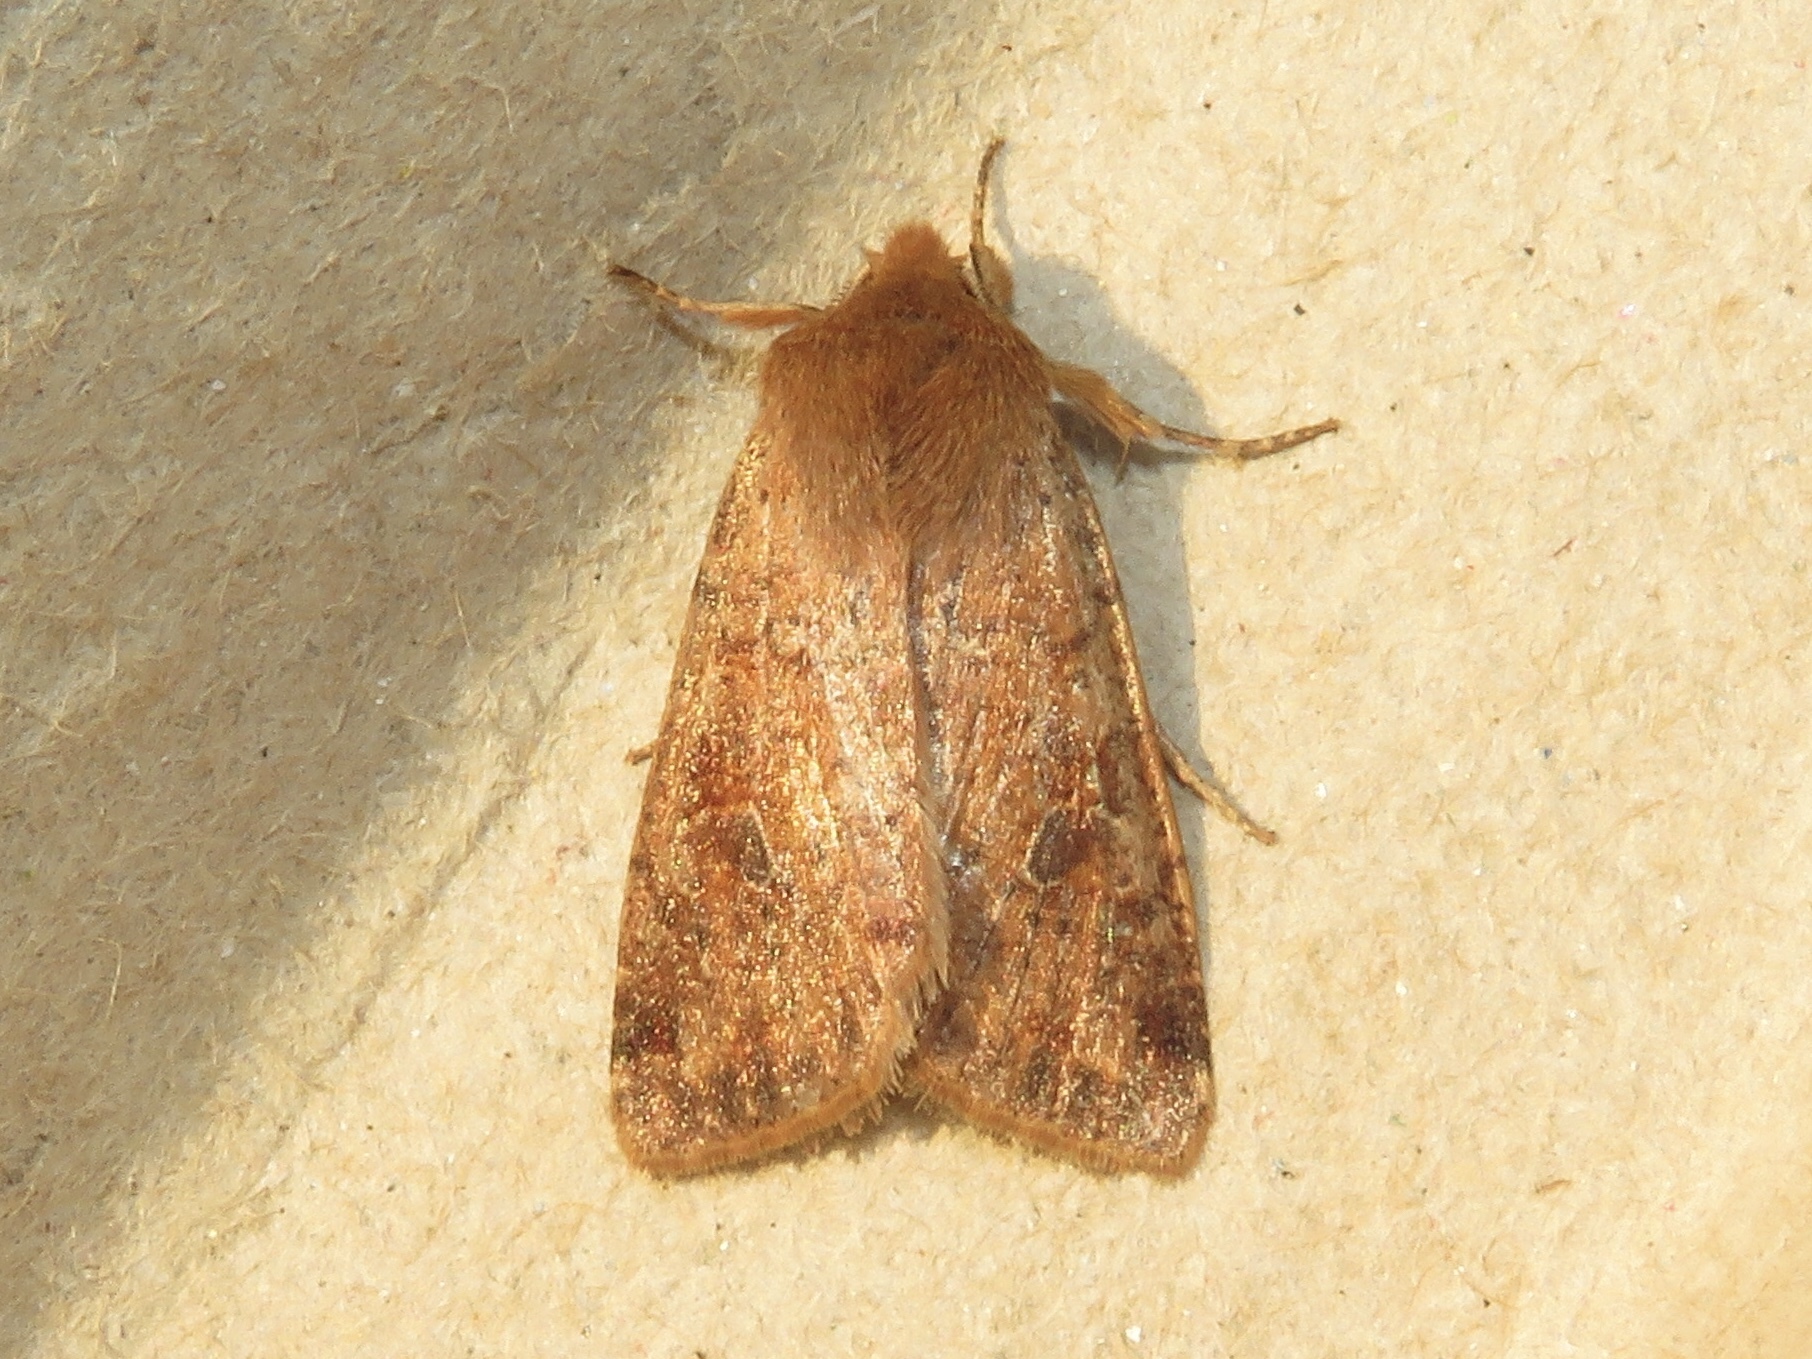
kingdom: Animalia
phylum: Arthropoda
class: Insecta
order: Lepidoptera
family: Noctuidae
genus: Orthosia
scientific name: Orthosia rubescens
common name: Ruby quaker
